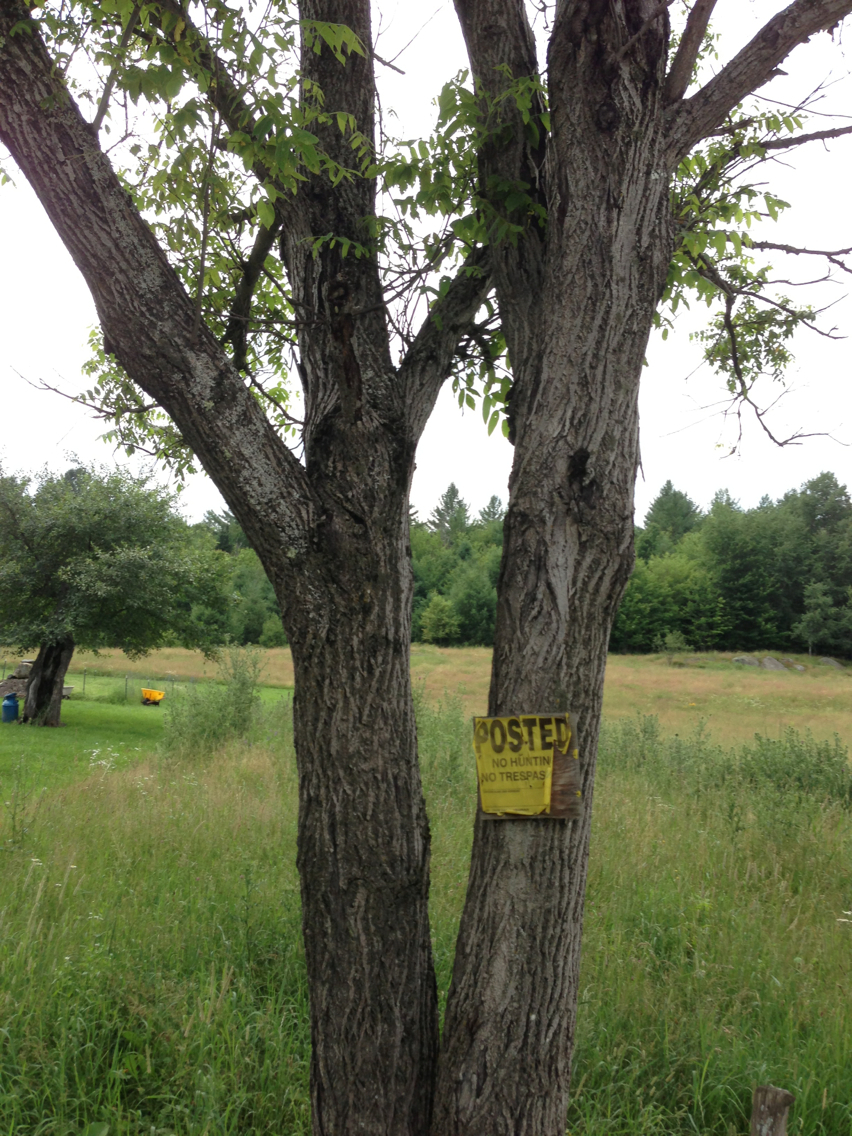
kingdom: Plantae
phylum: Tracheophyta
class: Magnoliopsida
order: Fagales
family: Juglandaceae
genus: Juglans
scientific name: Juglans cinerea
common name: Butternut
